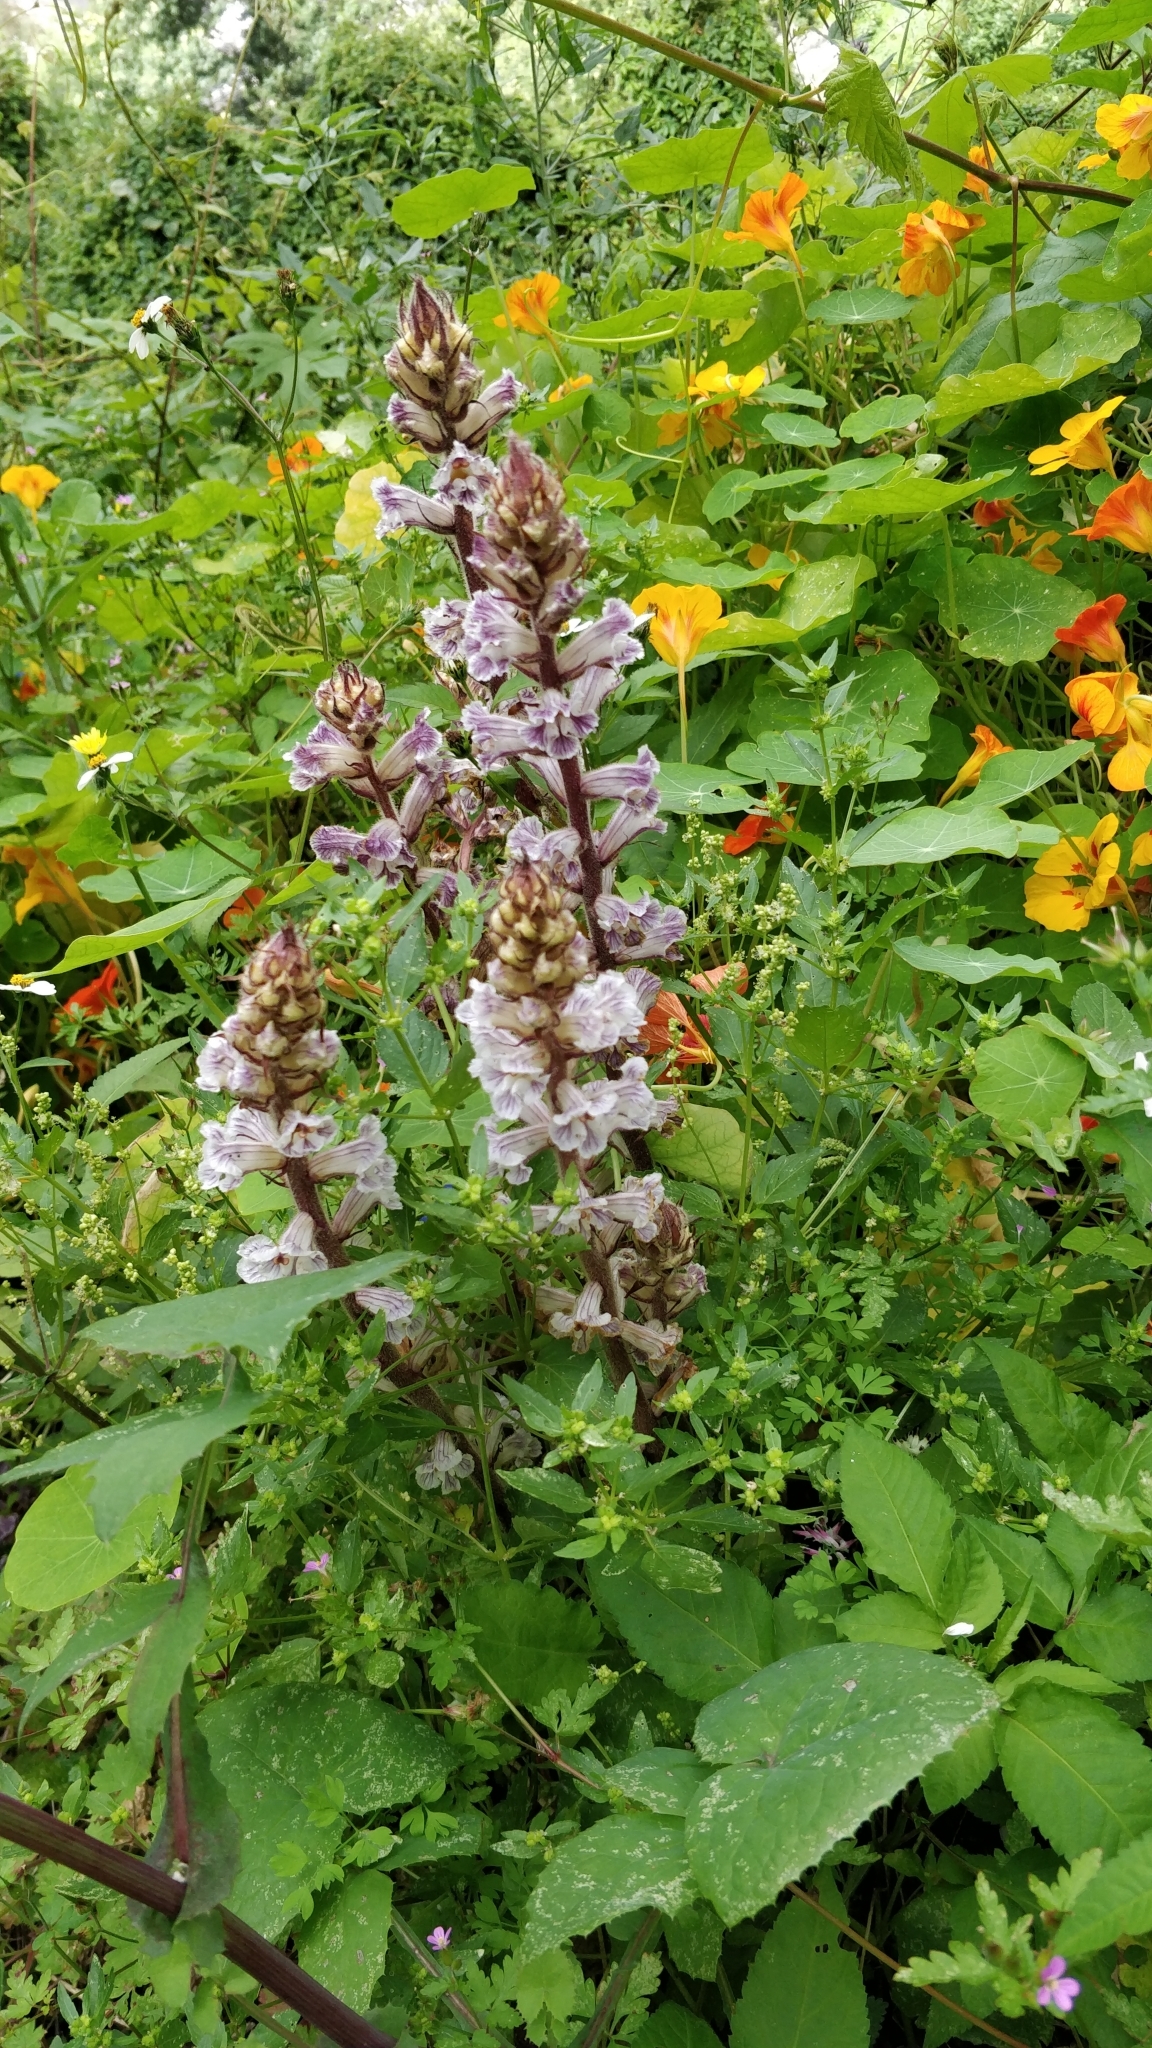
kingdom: Plantae
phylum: Tracheophyta
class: Magnoliopsida
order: Lamiales
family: Orobanchaceae
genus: Orobanche
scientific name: Orobanche crenata
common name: Bean broomrape
